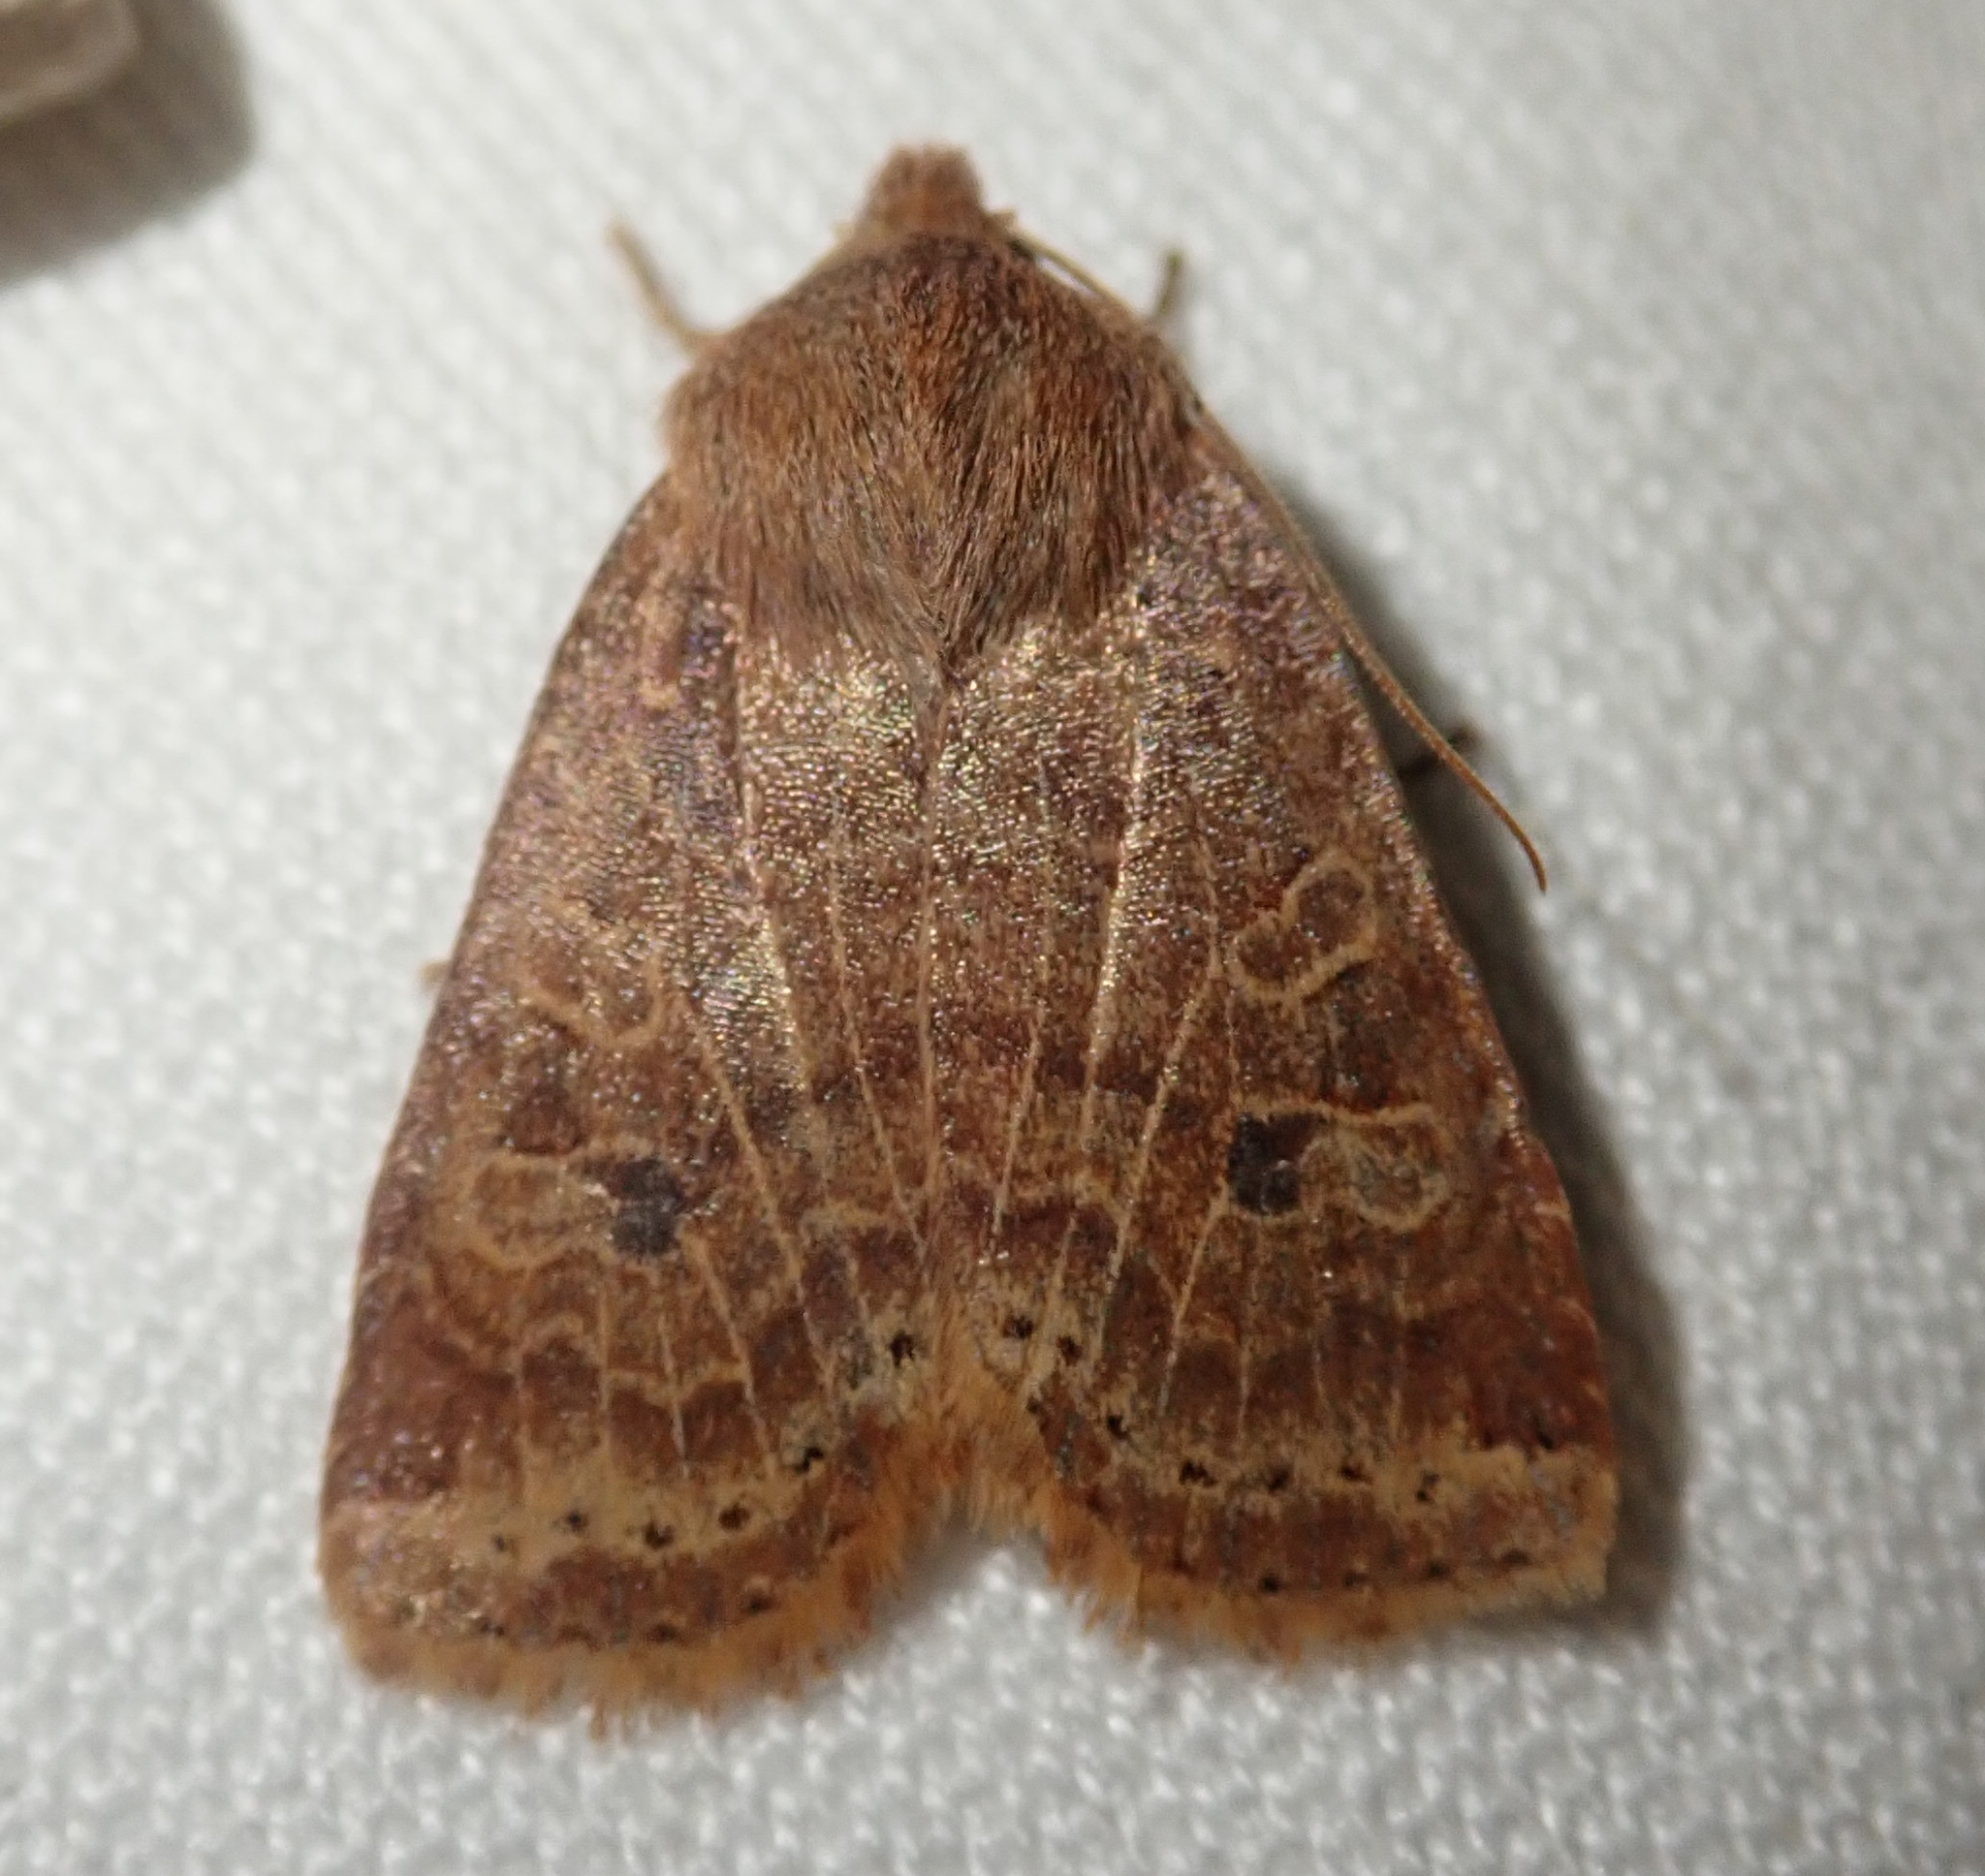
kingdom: Animalia
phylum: Arthropoda
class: Insecta
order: Lepidoptera
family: Noctuidae
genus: Conistra
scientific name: Conistra vaccinii
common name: Chestnut
